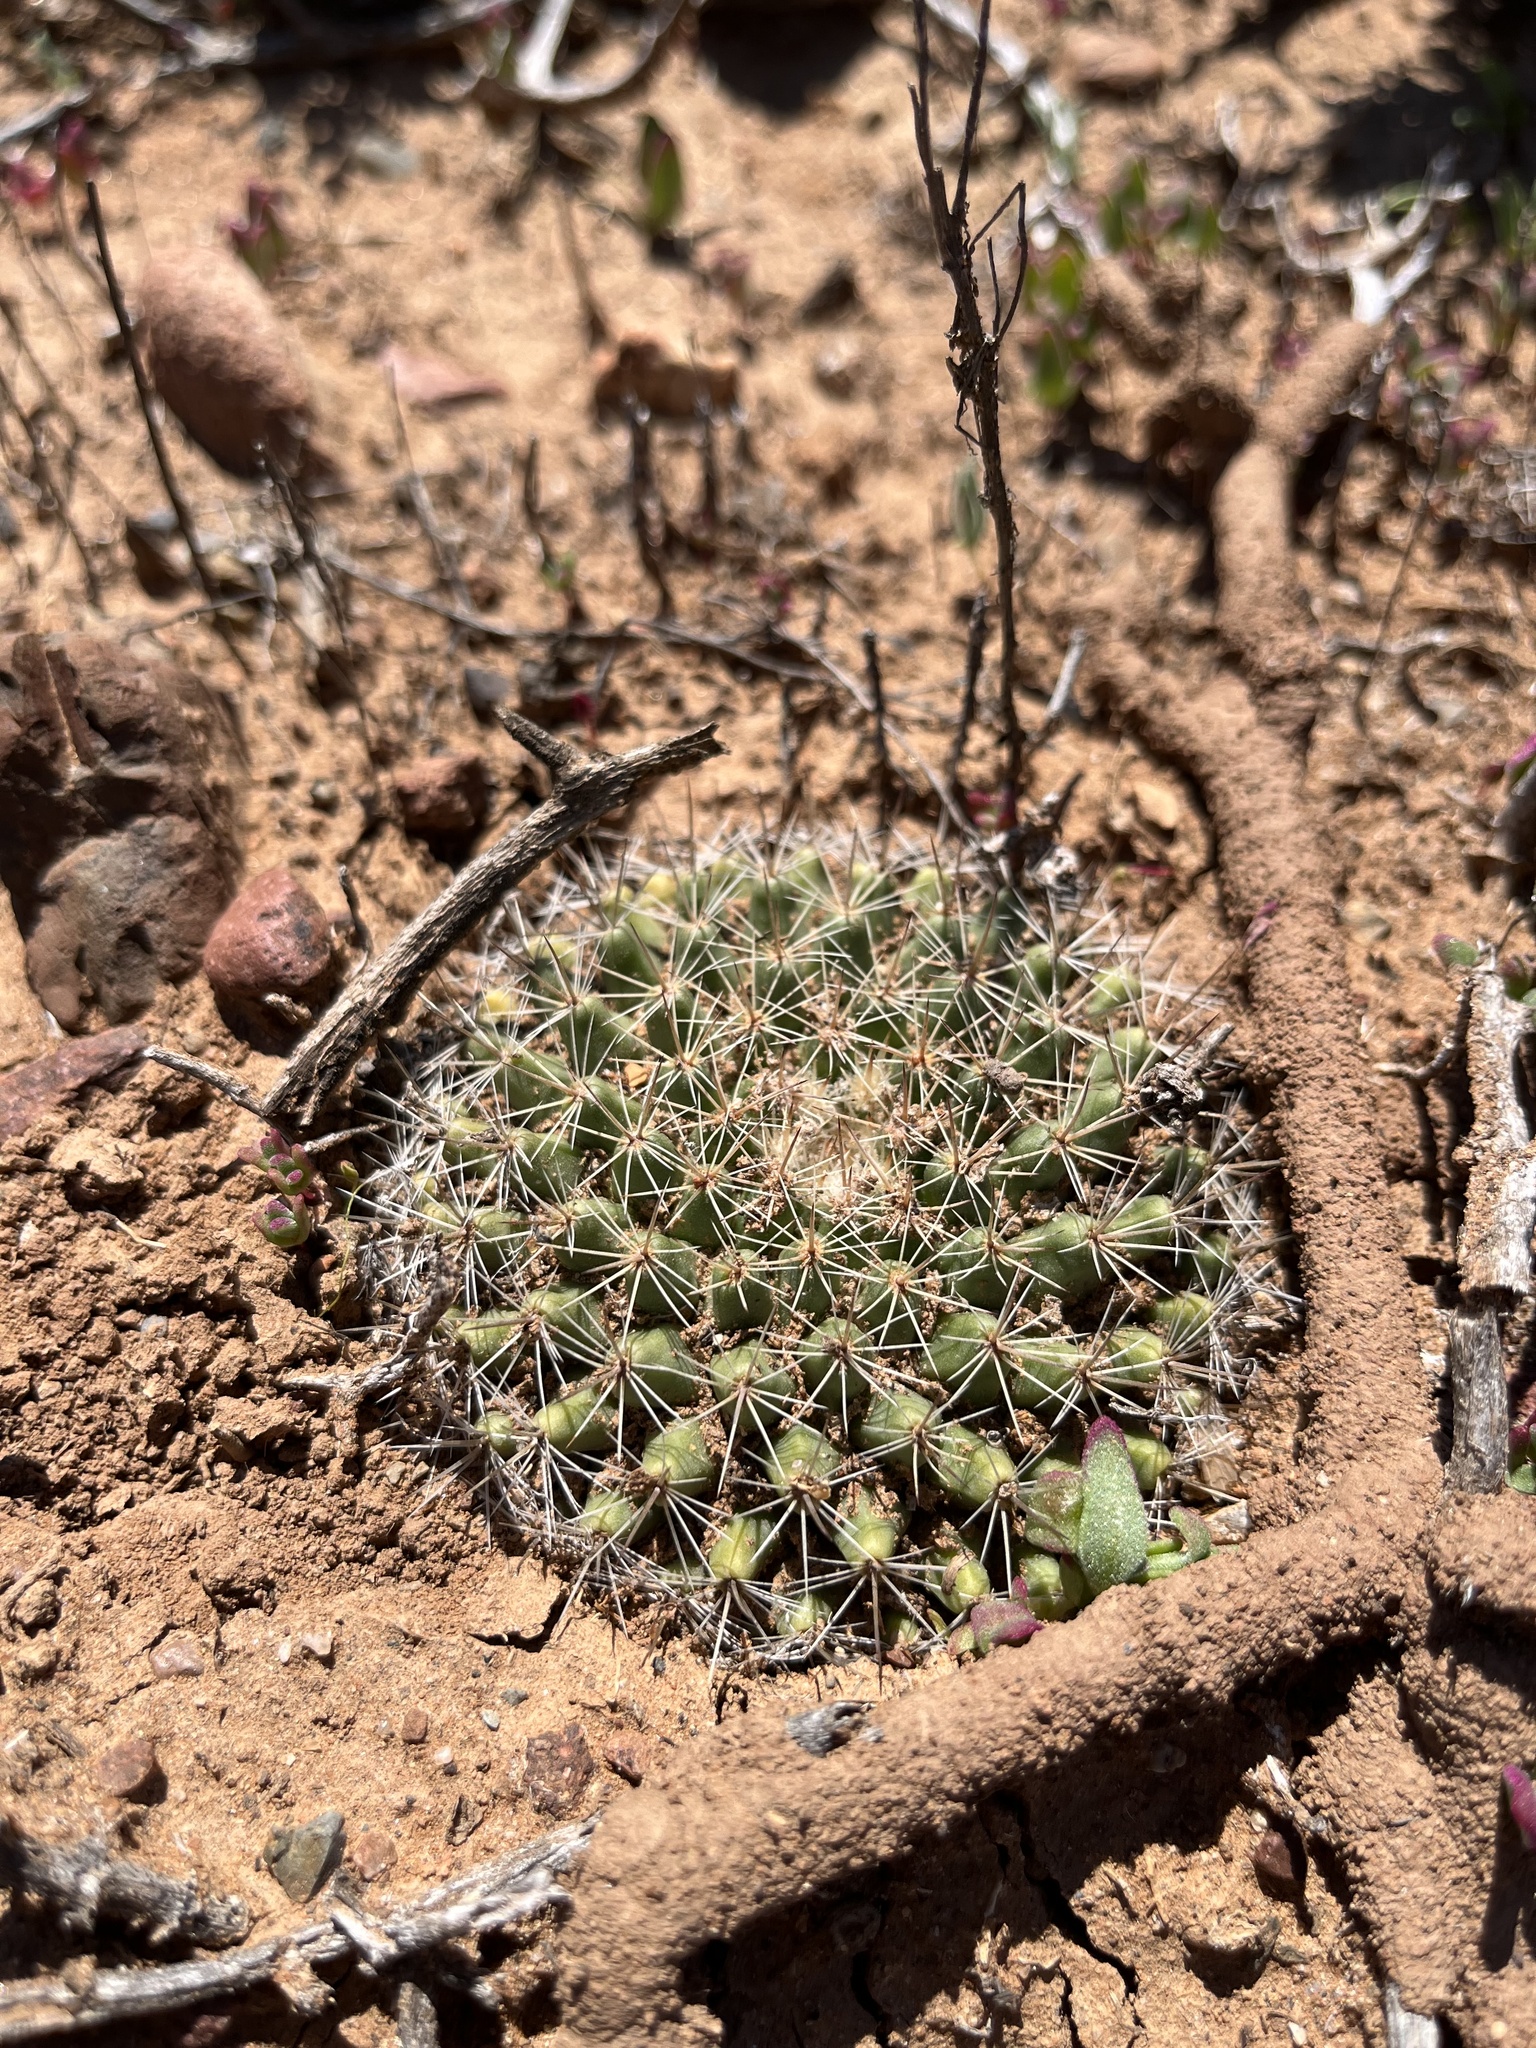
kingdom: Plantae
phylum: Tracheophyta
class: Magnoliopsida
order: Caryophyllales
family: Cactaceae
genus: Mammillaria
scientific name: Mammillaria brandegeei
